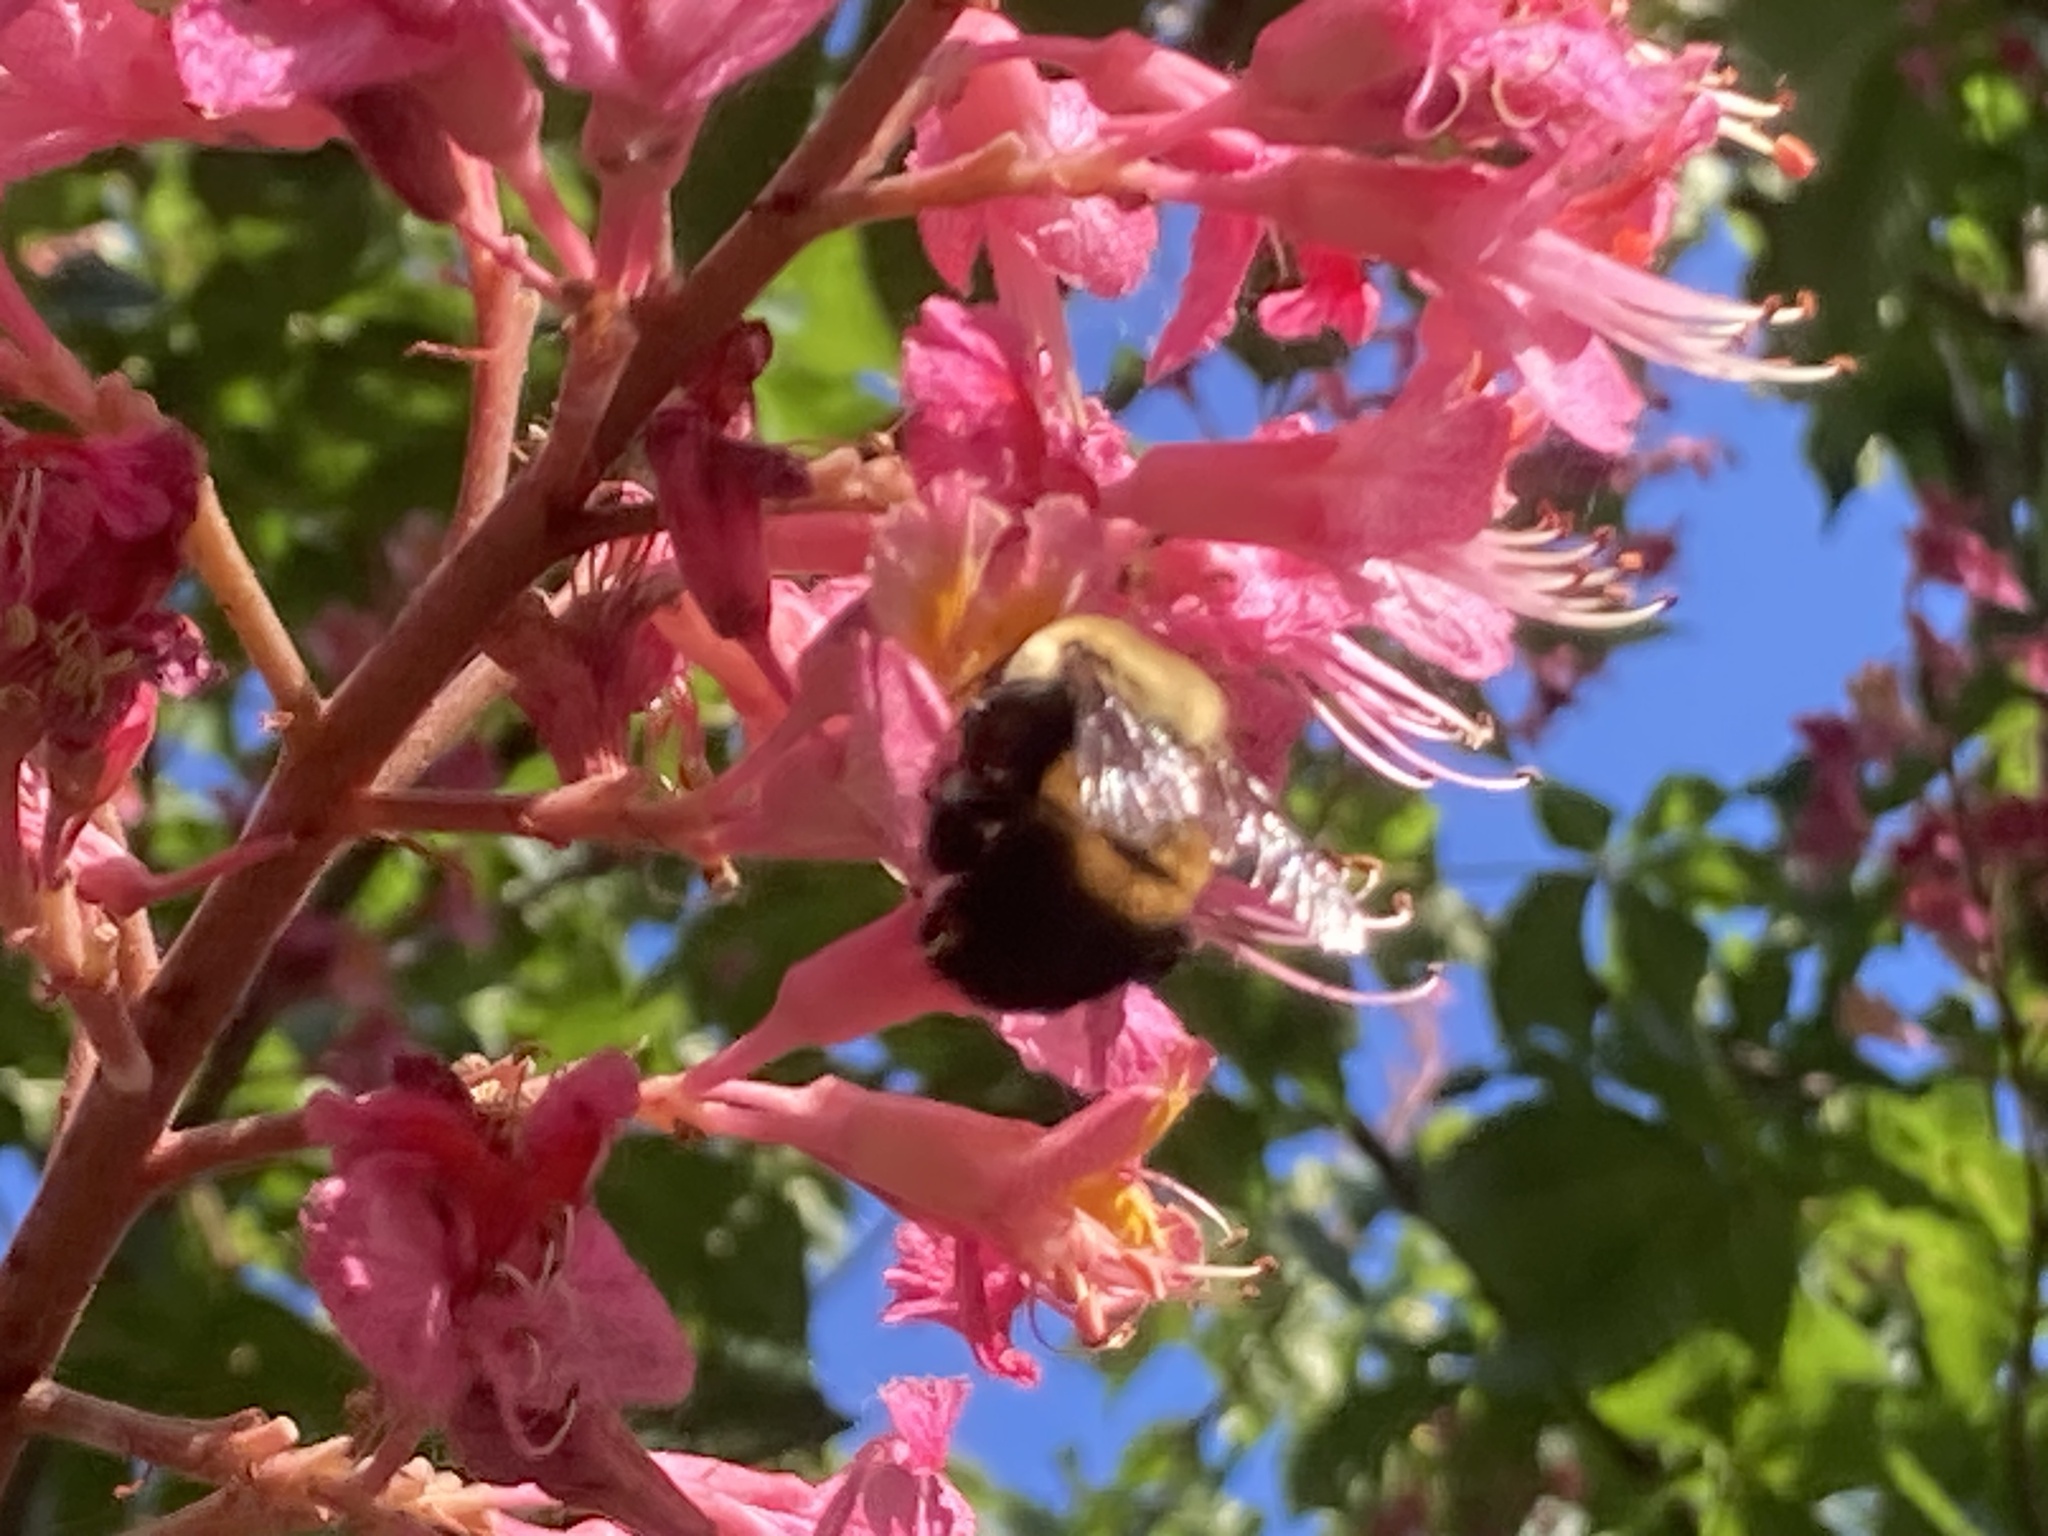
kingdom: Animalia
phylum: Arthropoda
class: Insecta
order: Hymenoptera
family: Apidae
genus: Bombus
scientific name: Bombus griseocollis
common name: Brown-belted bumble bee
